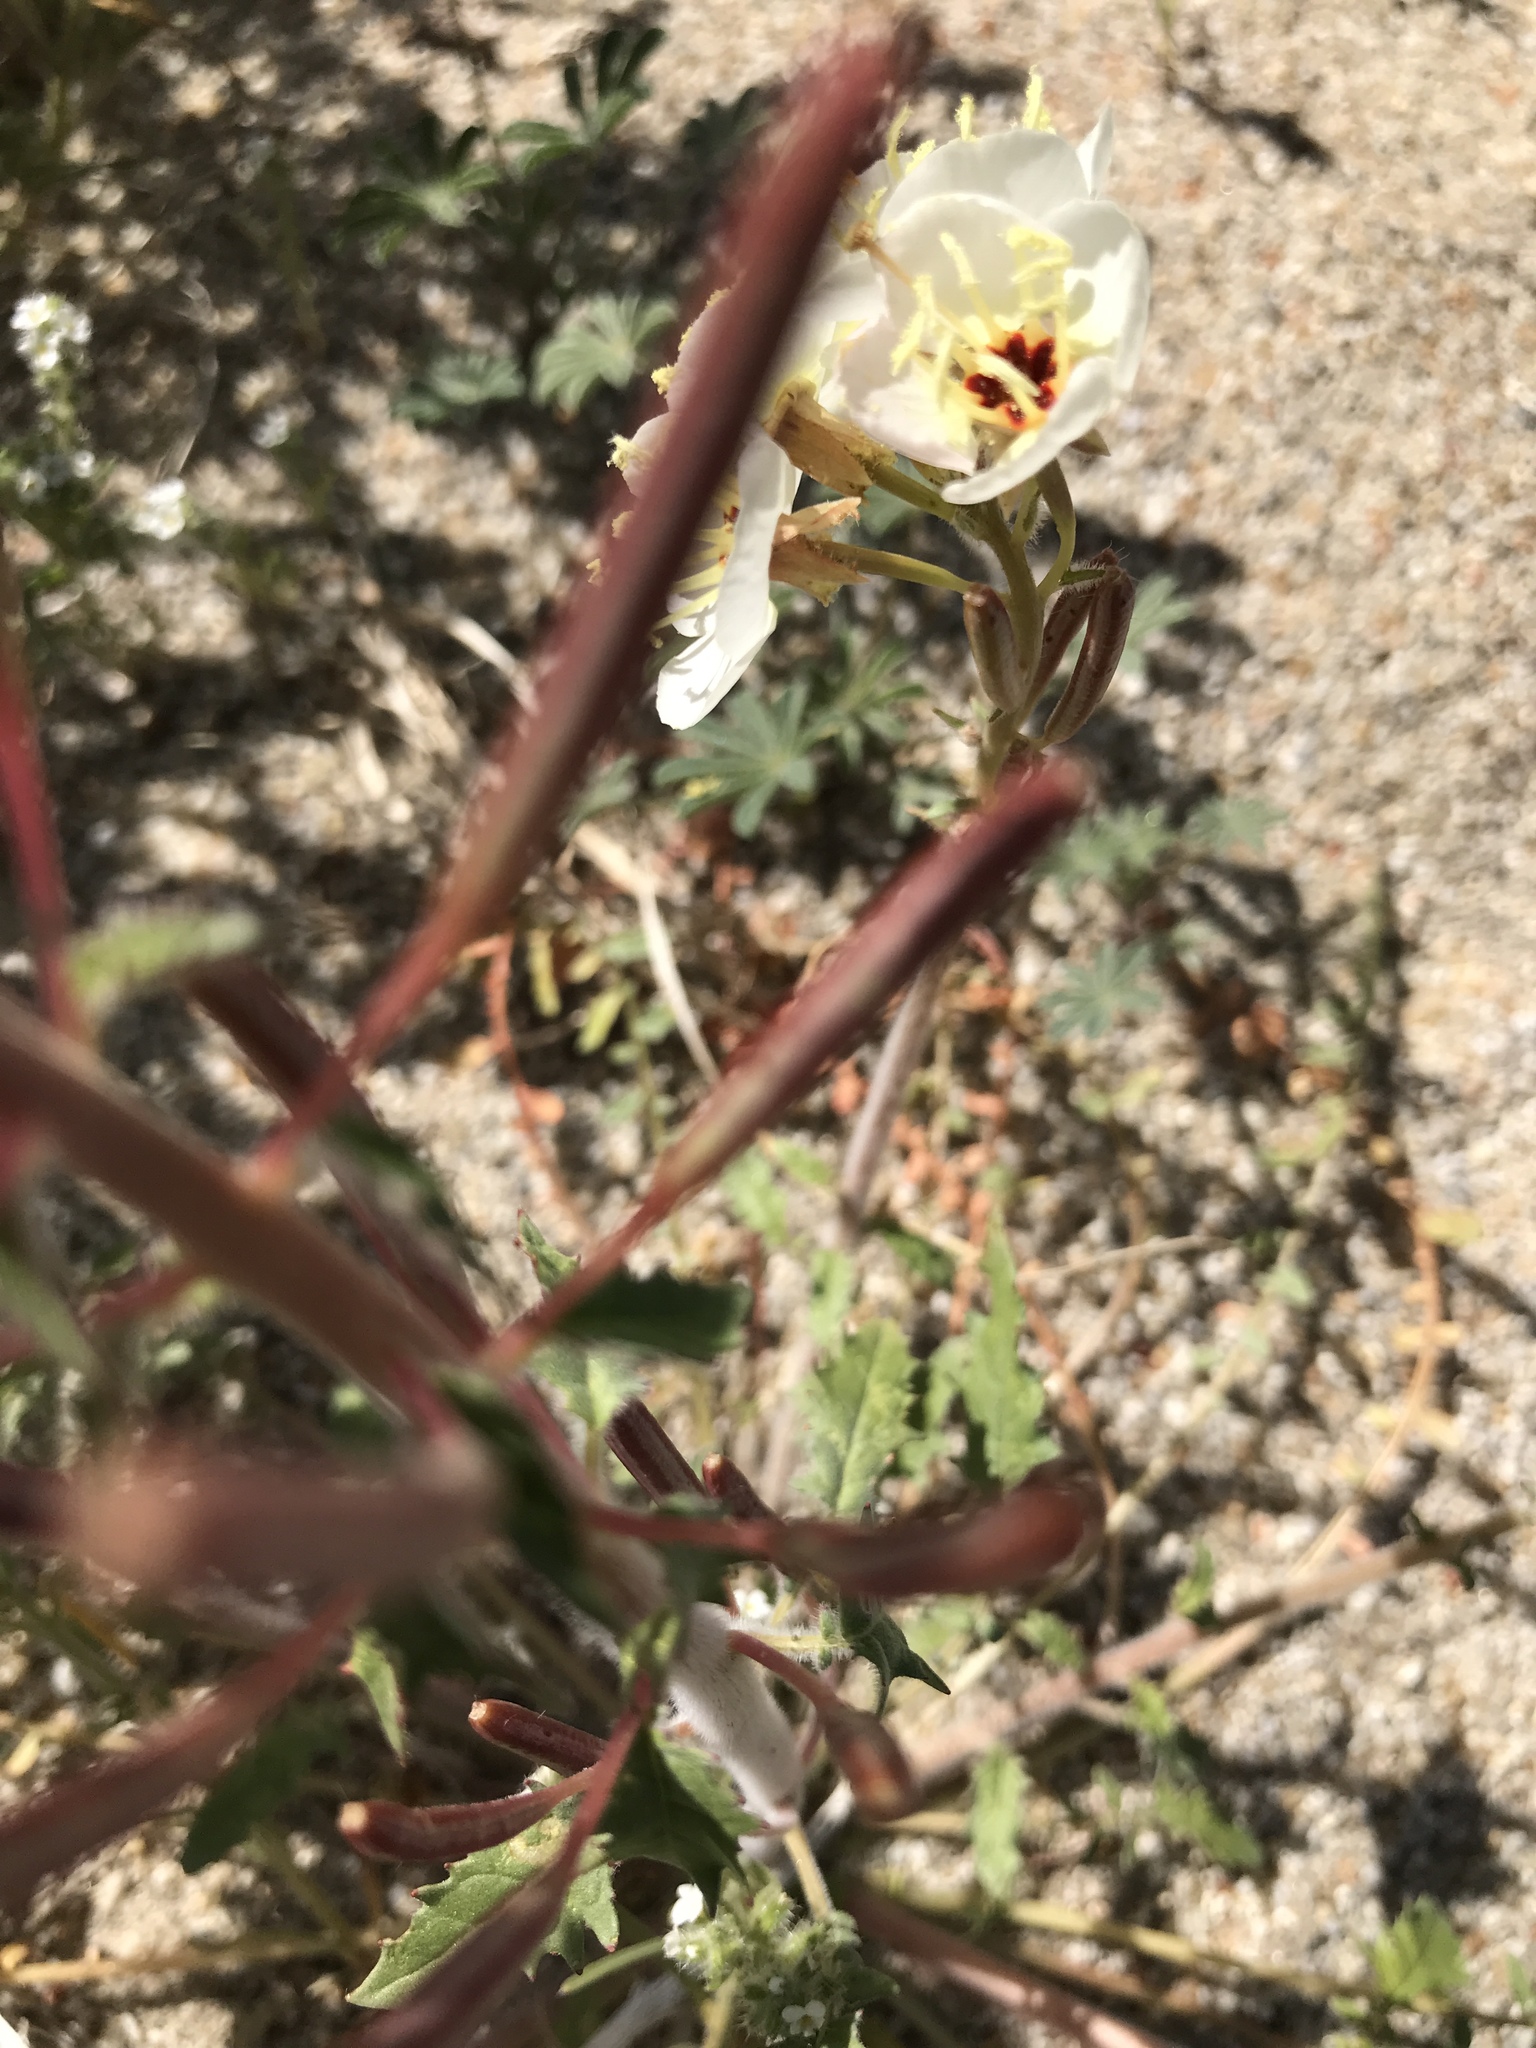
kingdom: Plantae
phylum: Tracheophyta
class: Magnoliopsida
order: Myrtales
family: Onagraceae
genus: Chylismia
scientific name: Chylismia claviformis
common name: Browneyes
